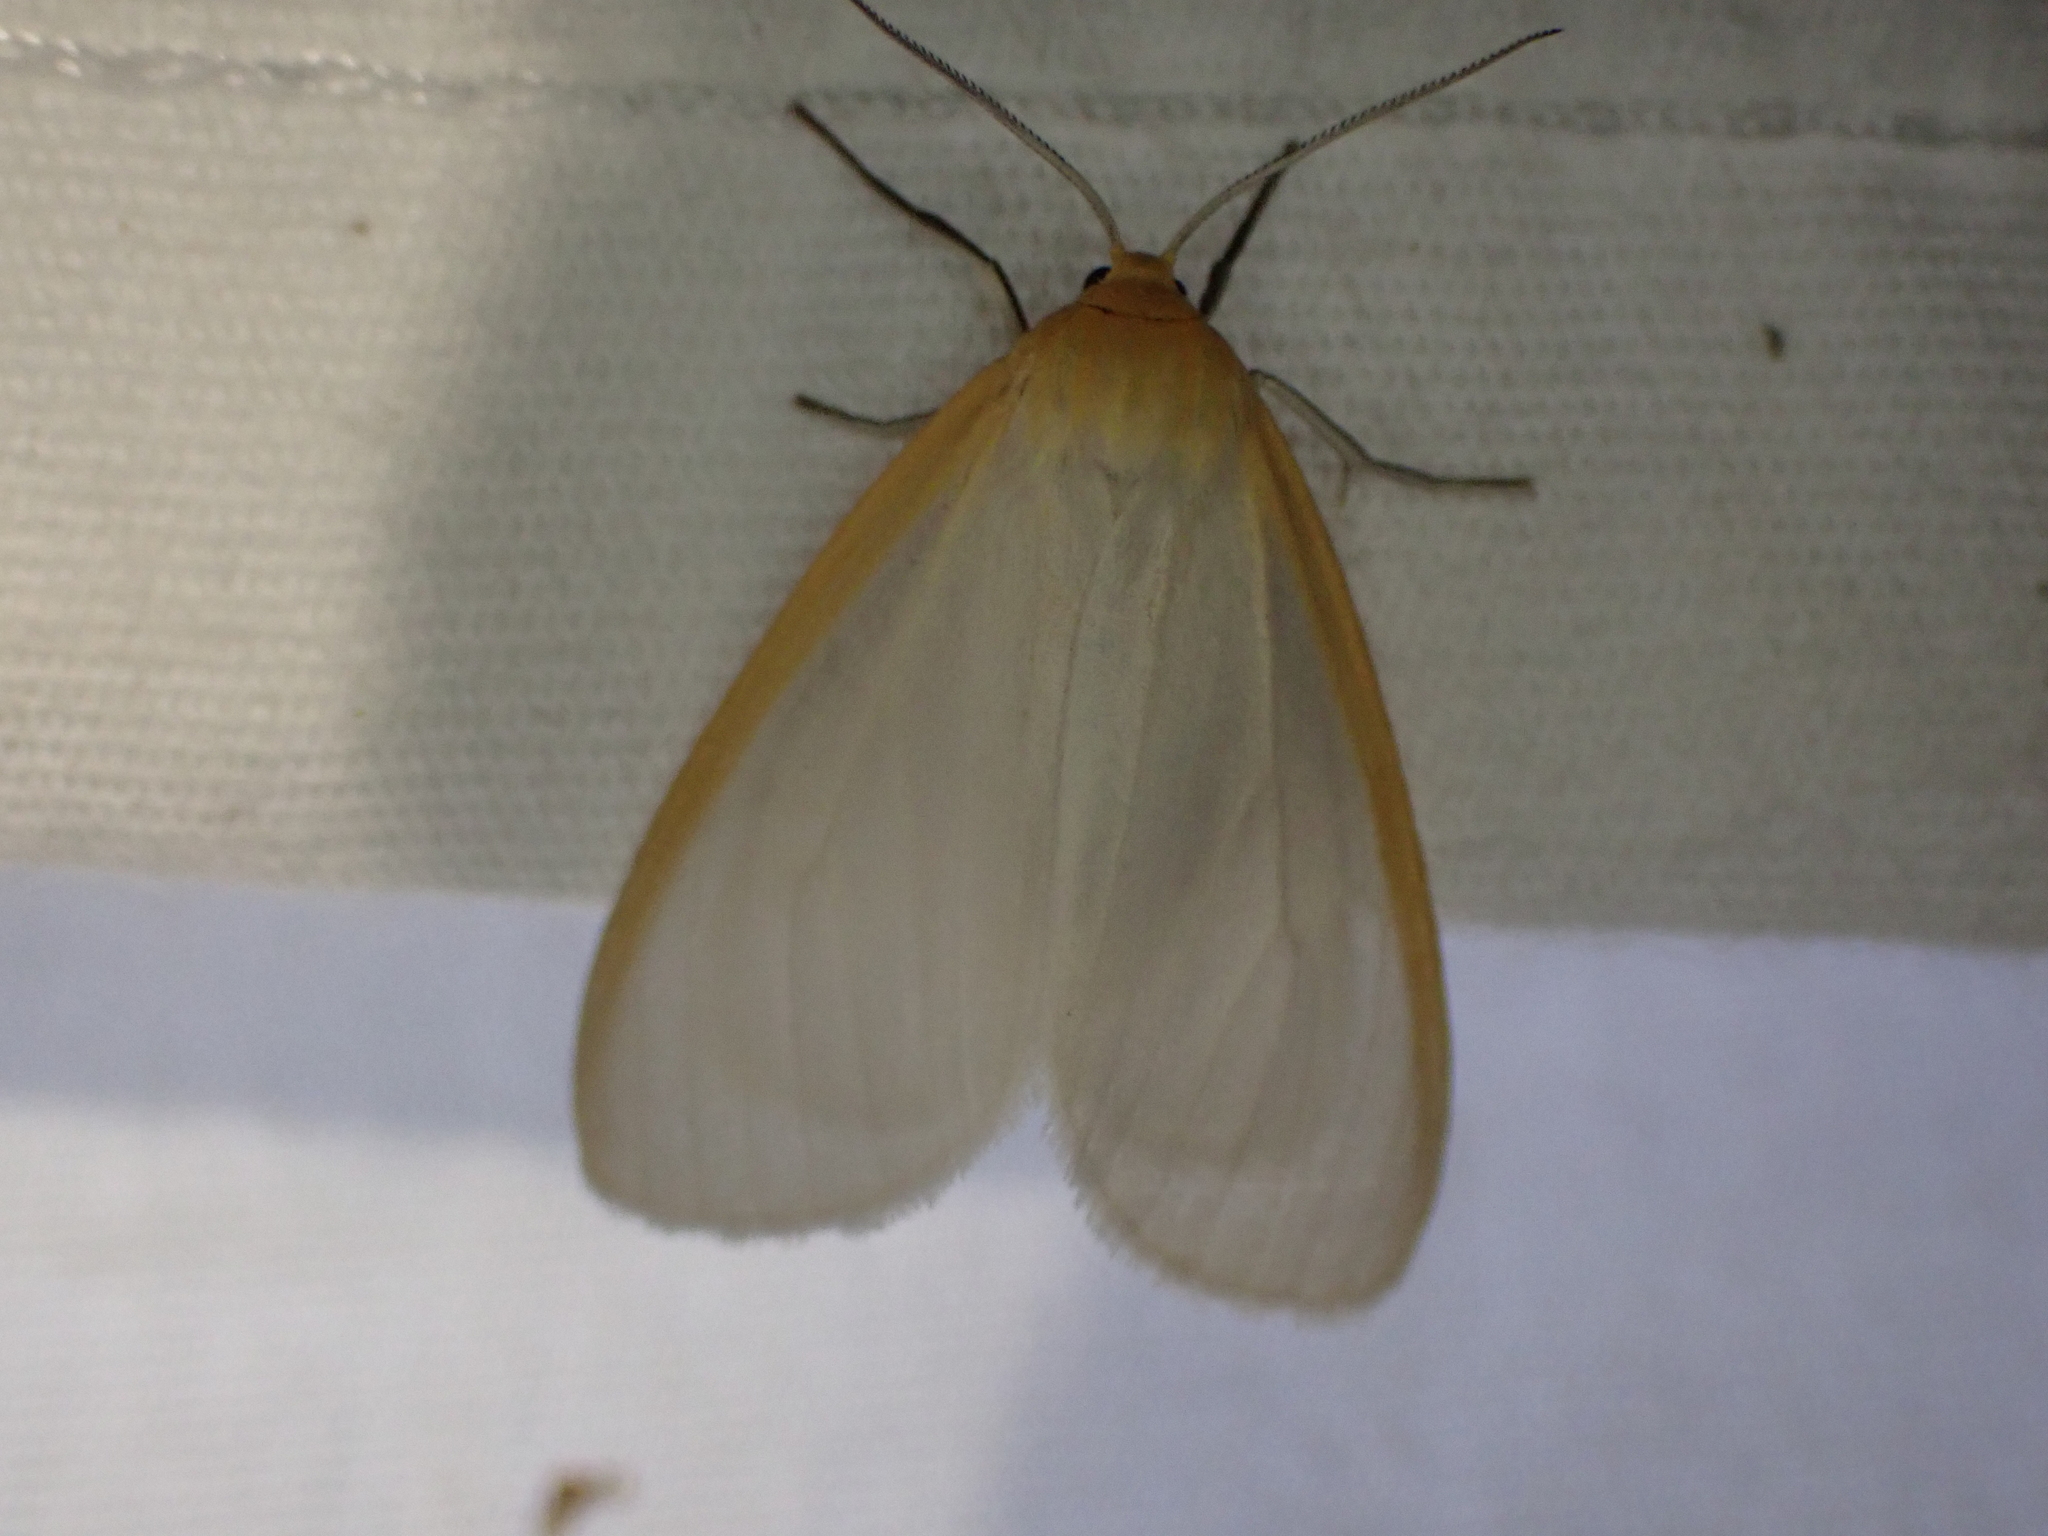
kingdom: Animalia
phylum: Arthropoda
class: Insecta
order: Lepidoptera
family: Erebidae
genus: Cycnia
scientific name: Cycnia tenera
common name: Delicate cycnia moth
